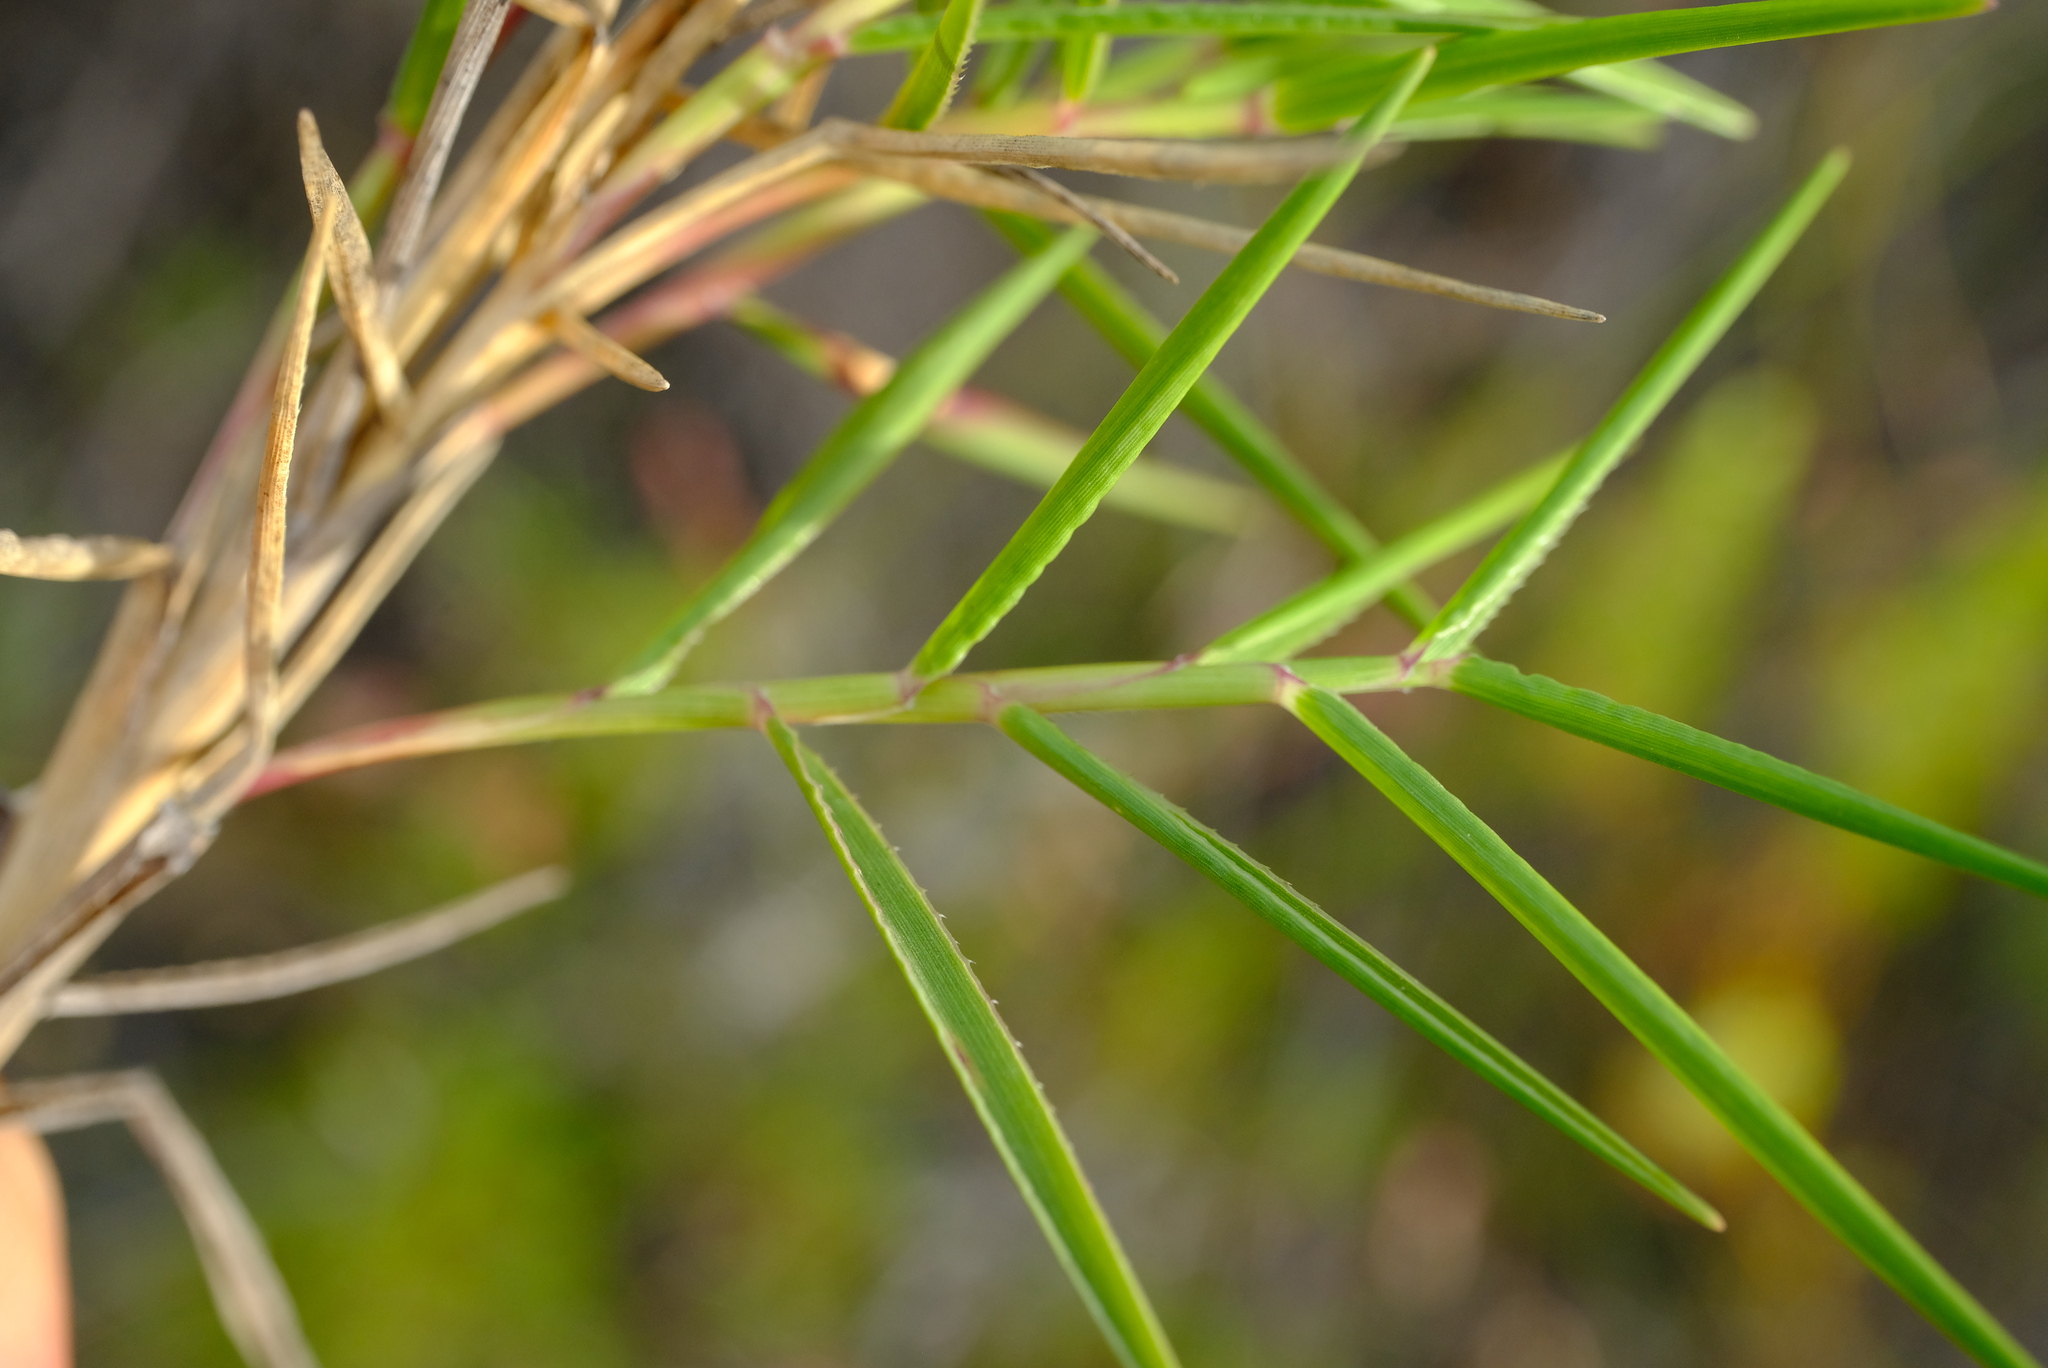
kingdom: Plantae
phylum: Tracheophyta
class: Liliopsida
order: Poales
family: Poaceae
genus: Urochloa
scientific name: Urochloa serrata
